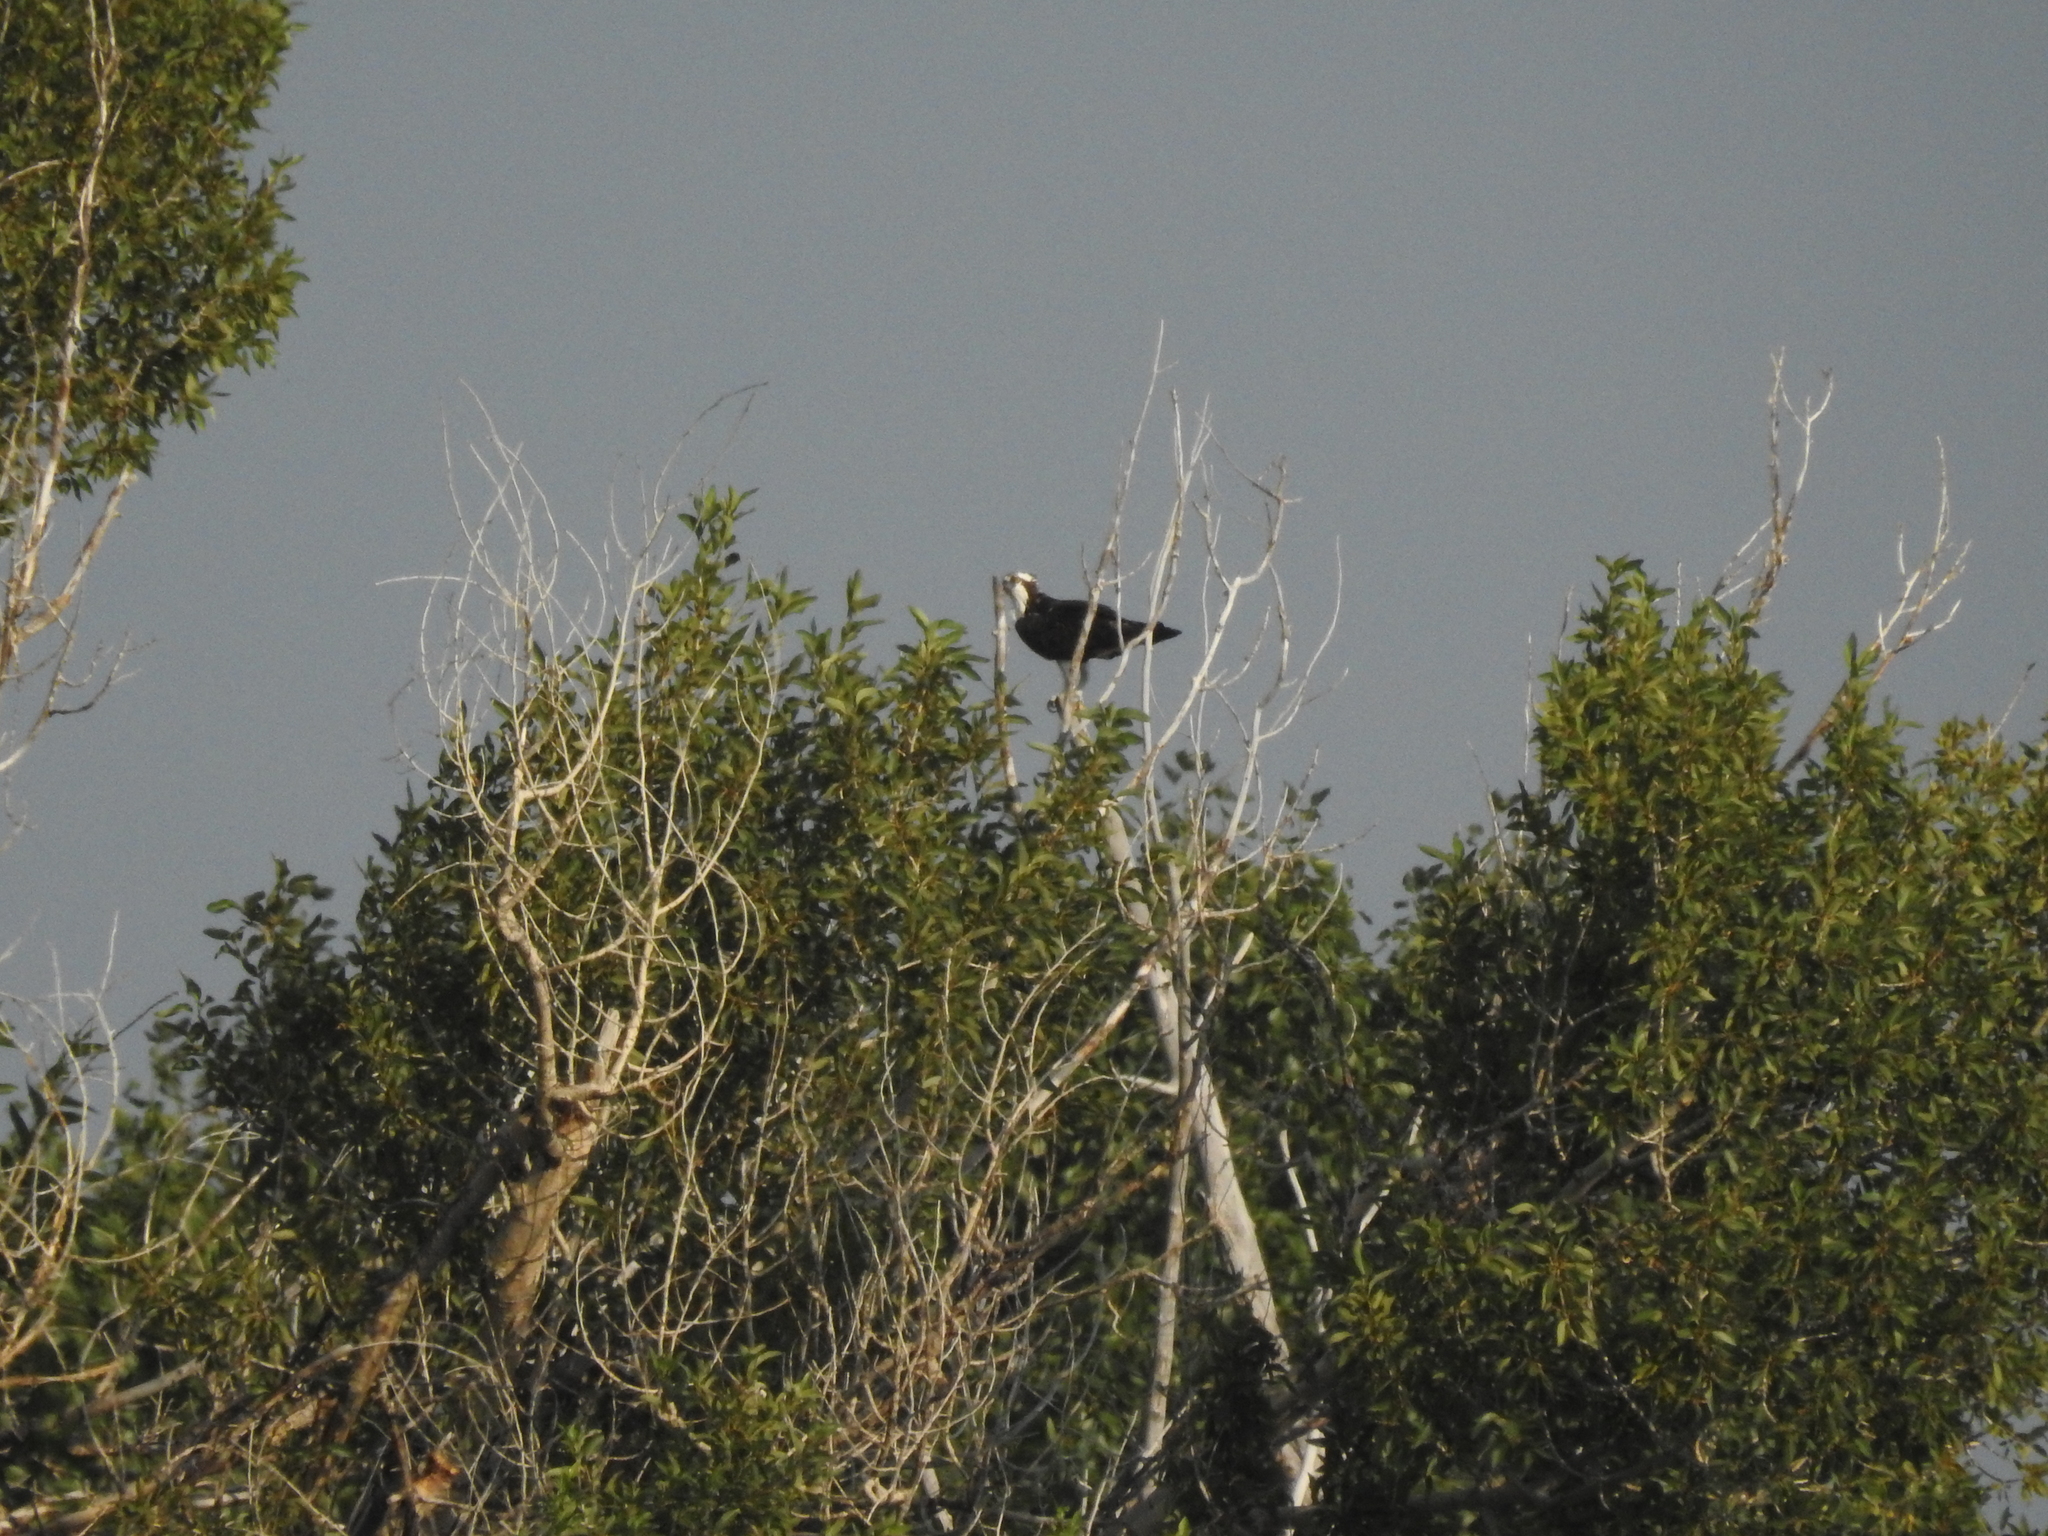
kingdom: Animalia
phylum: Chordata
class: Aves
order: Accipitriformes
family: Pandionidae
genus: Pandion
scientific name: Pandion haliaetus
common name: Osprey
